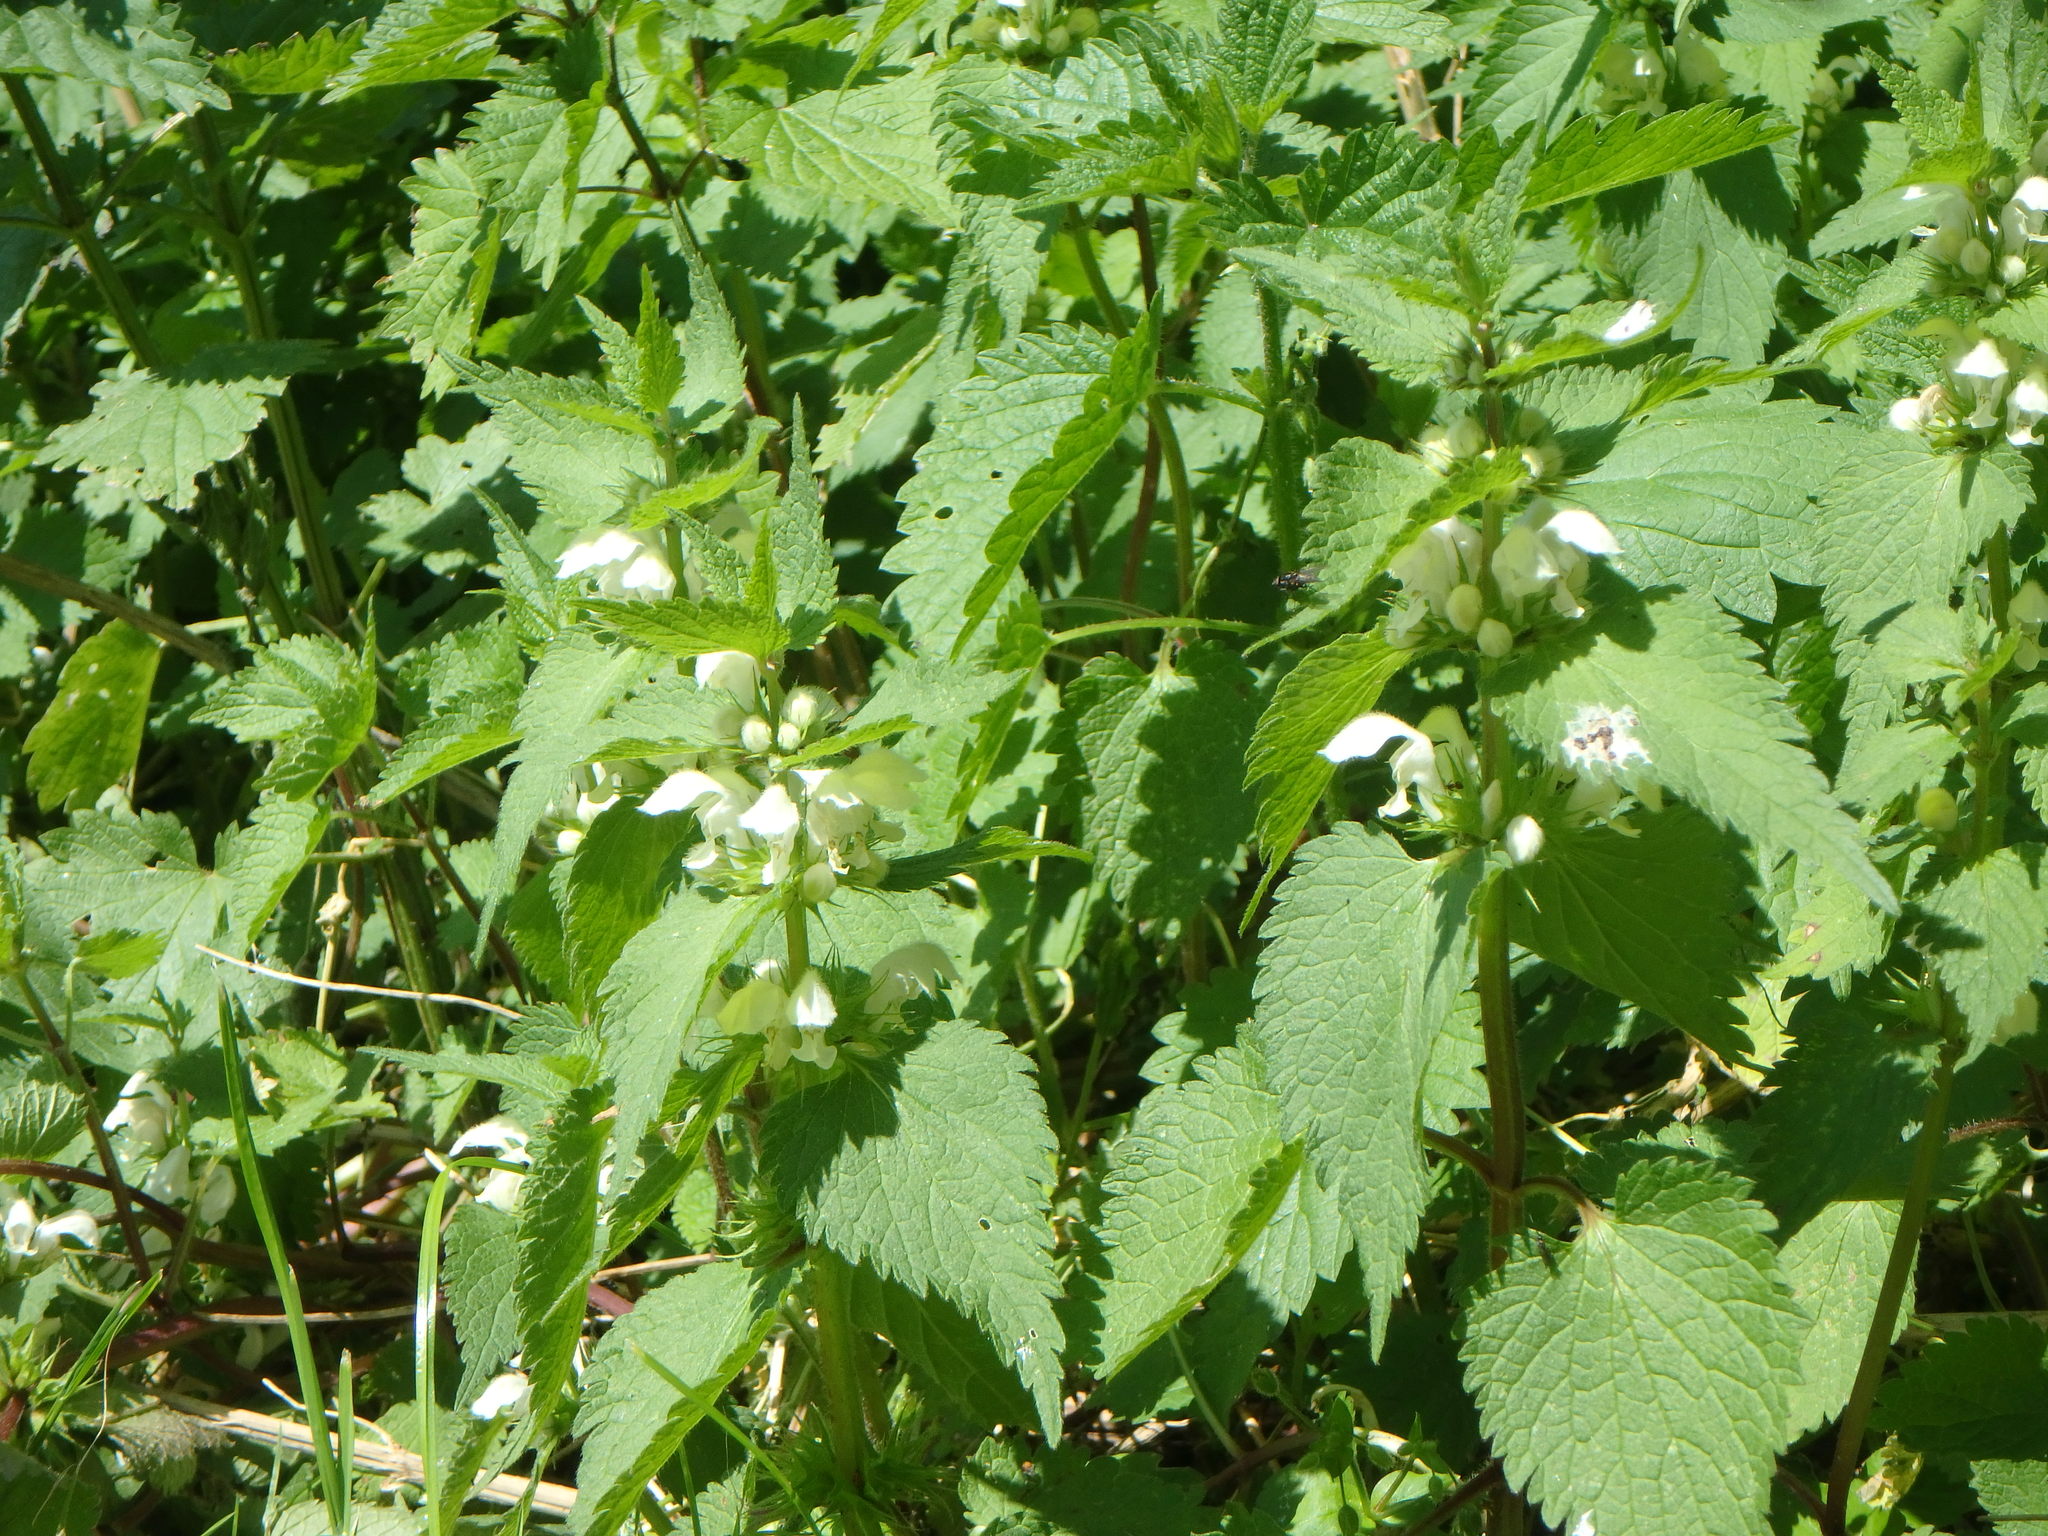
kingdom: Plantae
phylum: Tracheophyta
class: Magnoliopsida
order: Lamiales
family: Lamiaceae
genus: Lamium
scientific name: Lamium album
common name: White dead-nettle
